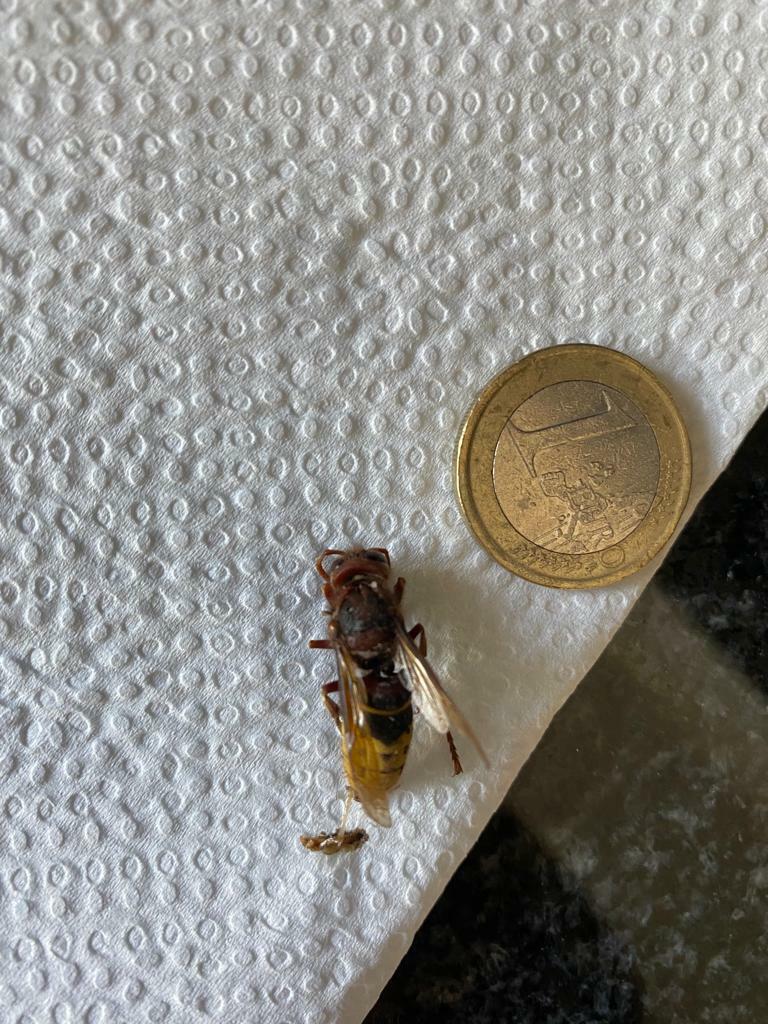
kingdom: Animalia
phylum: Arthropoda
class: Insecta
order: Hymenoptera
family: Vespidae
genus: Vespa
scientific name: Vespa crabro
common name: Hornet
